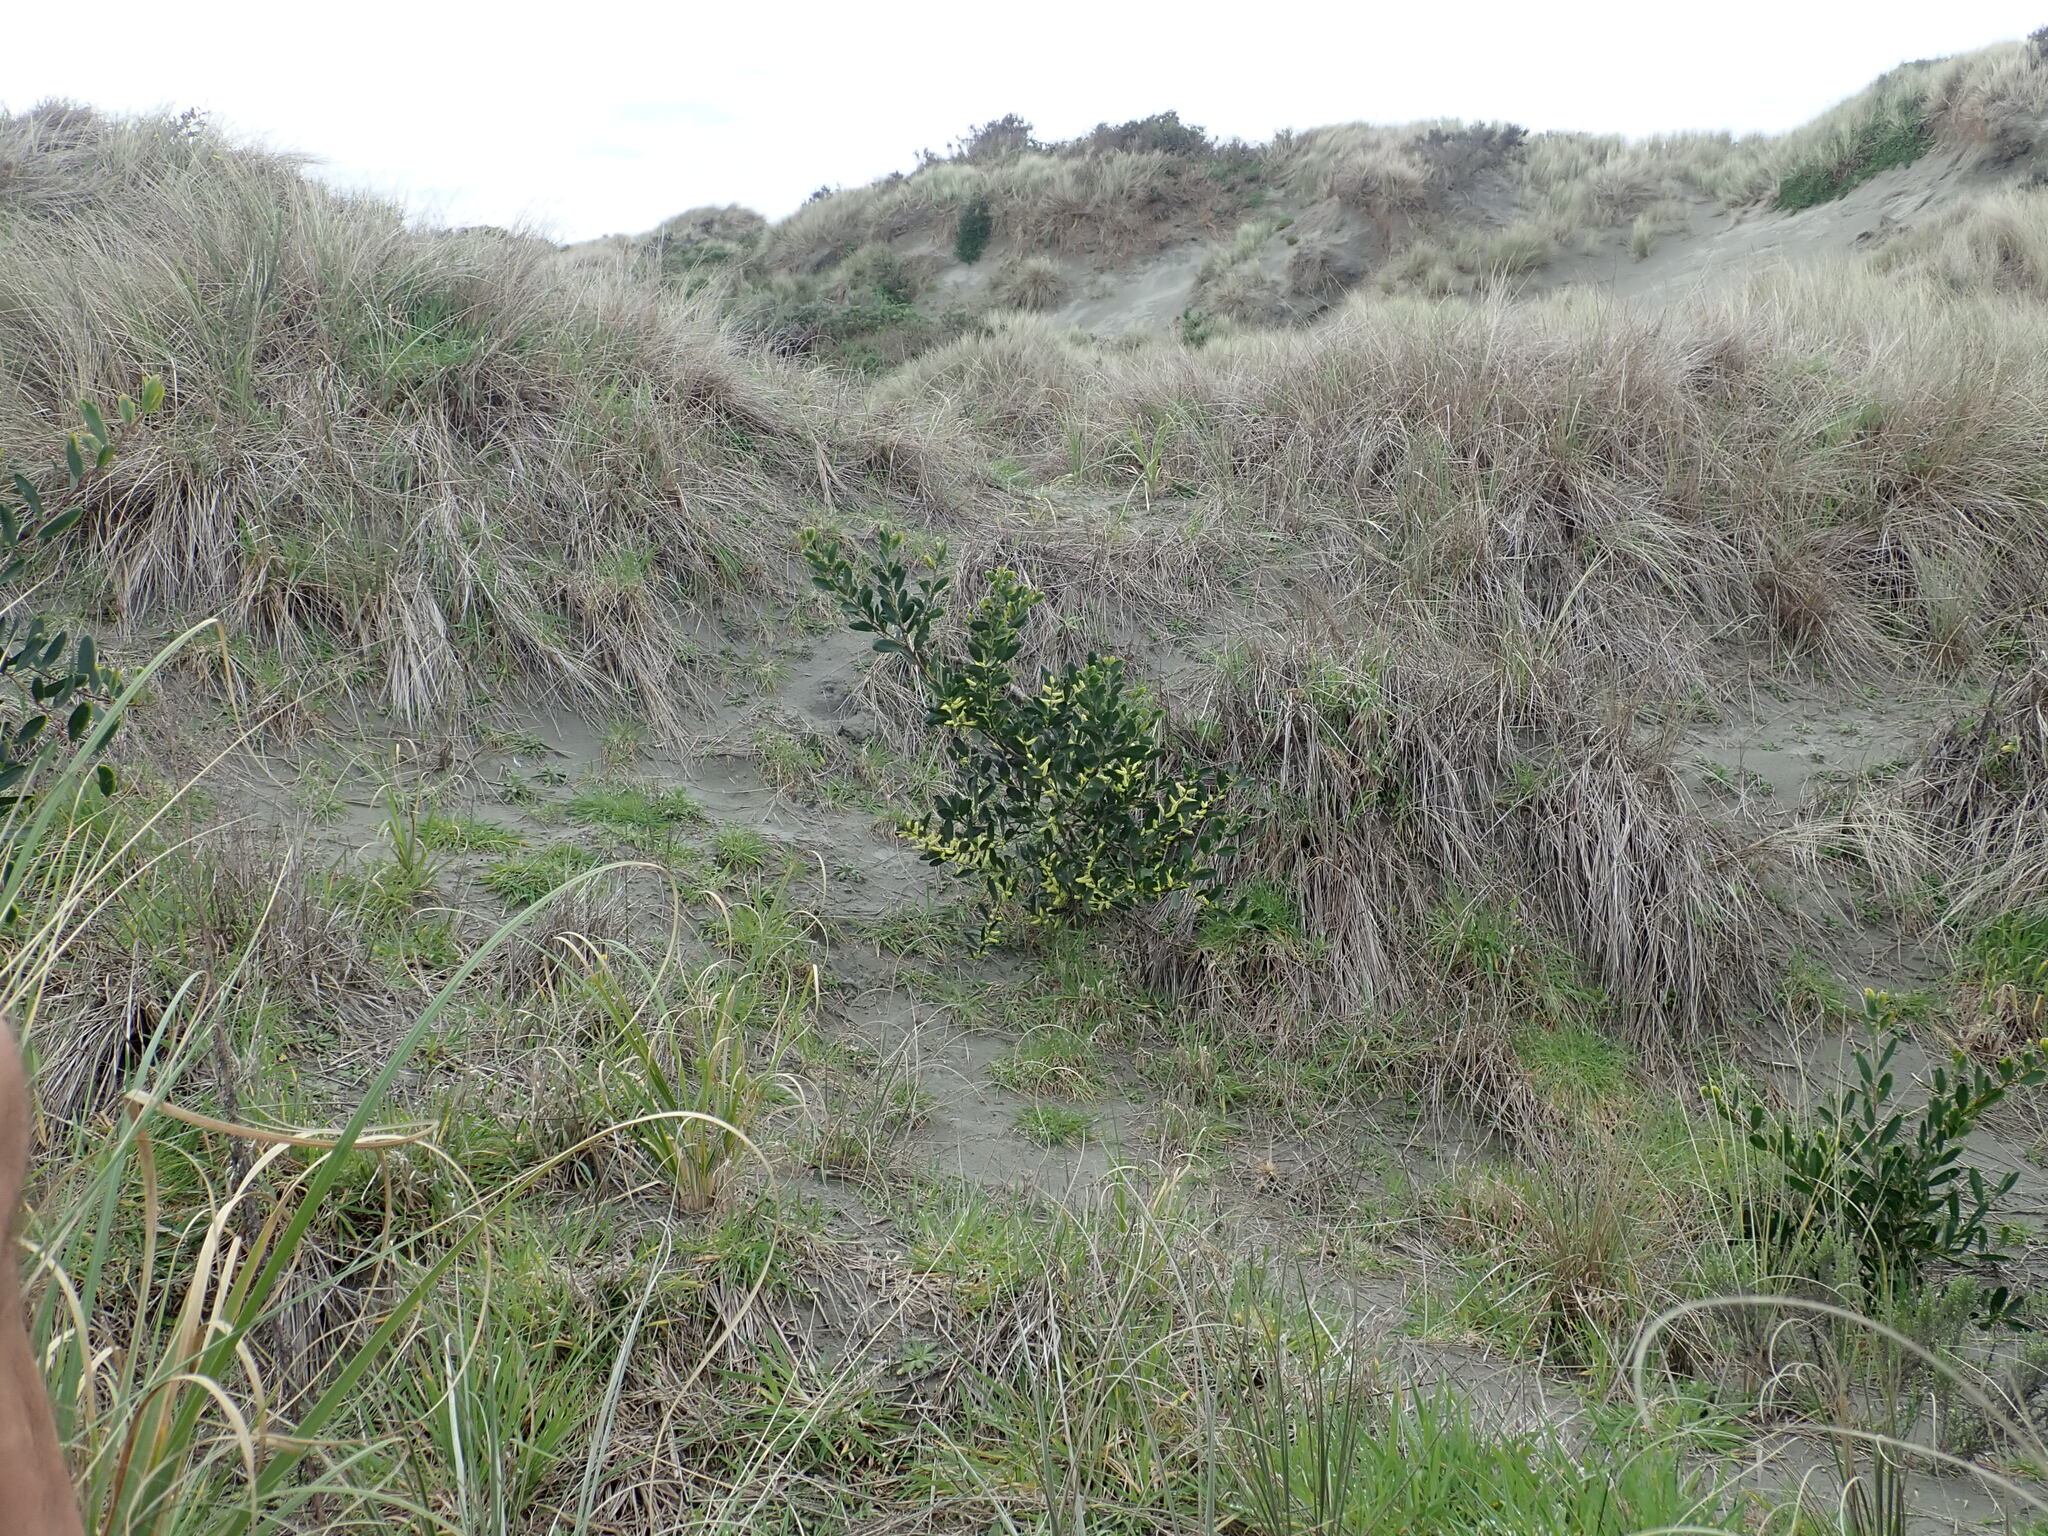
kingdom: Plantae
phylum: Tracheophyta
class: Magnoliopsida
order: Fabales
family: Fabaceae
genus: Acacia
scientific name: Acacia longifolia
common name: Sydney golden wattle
